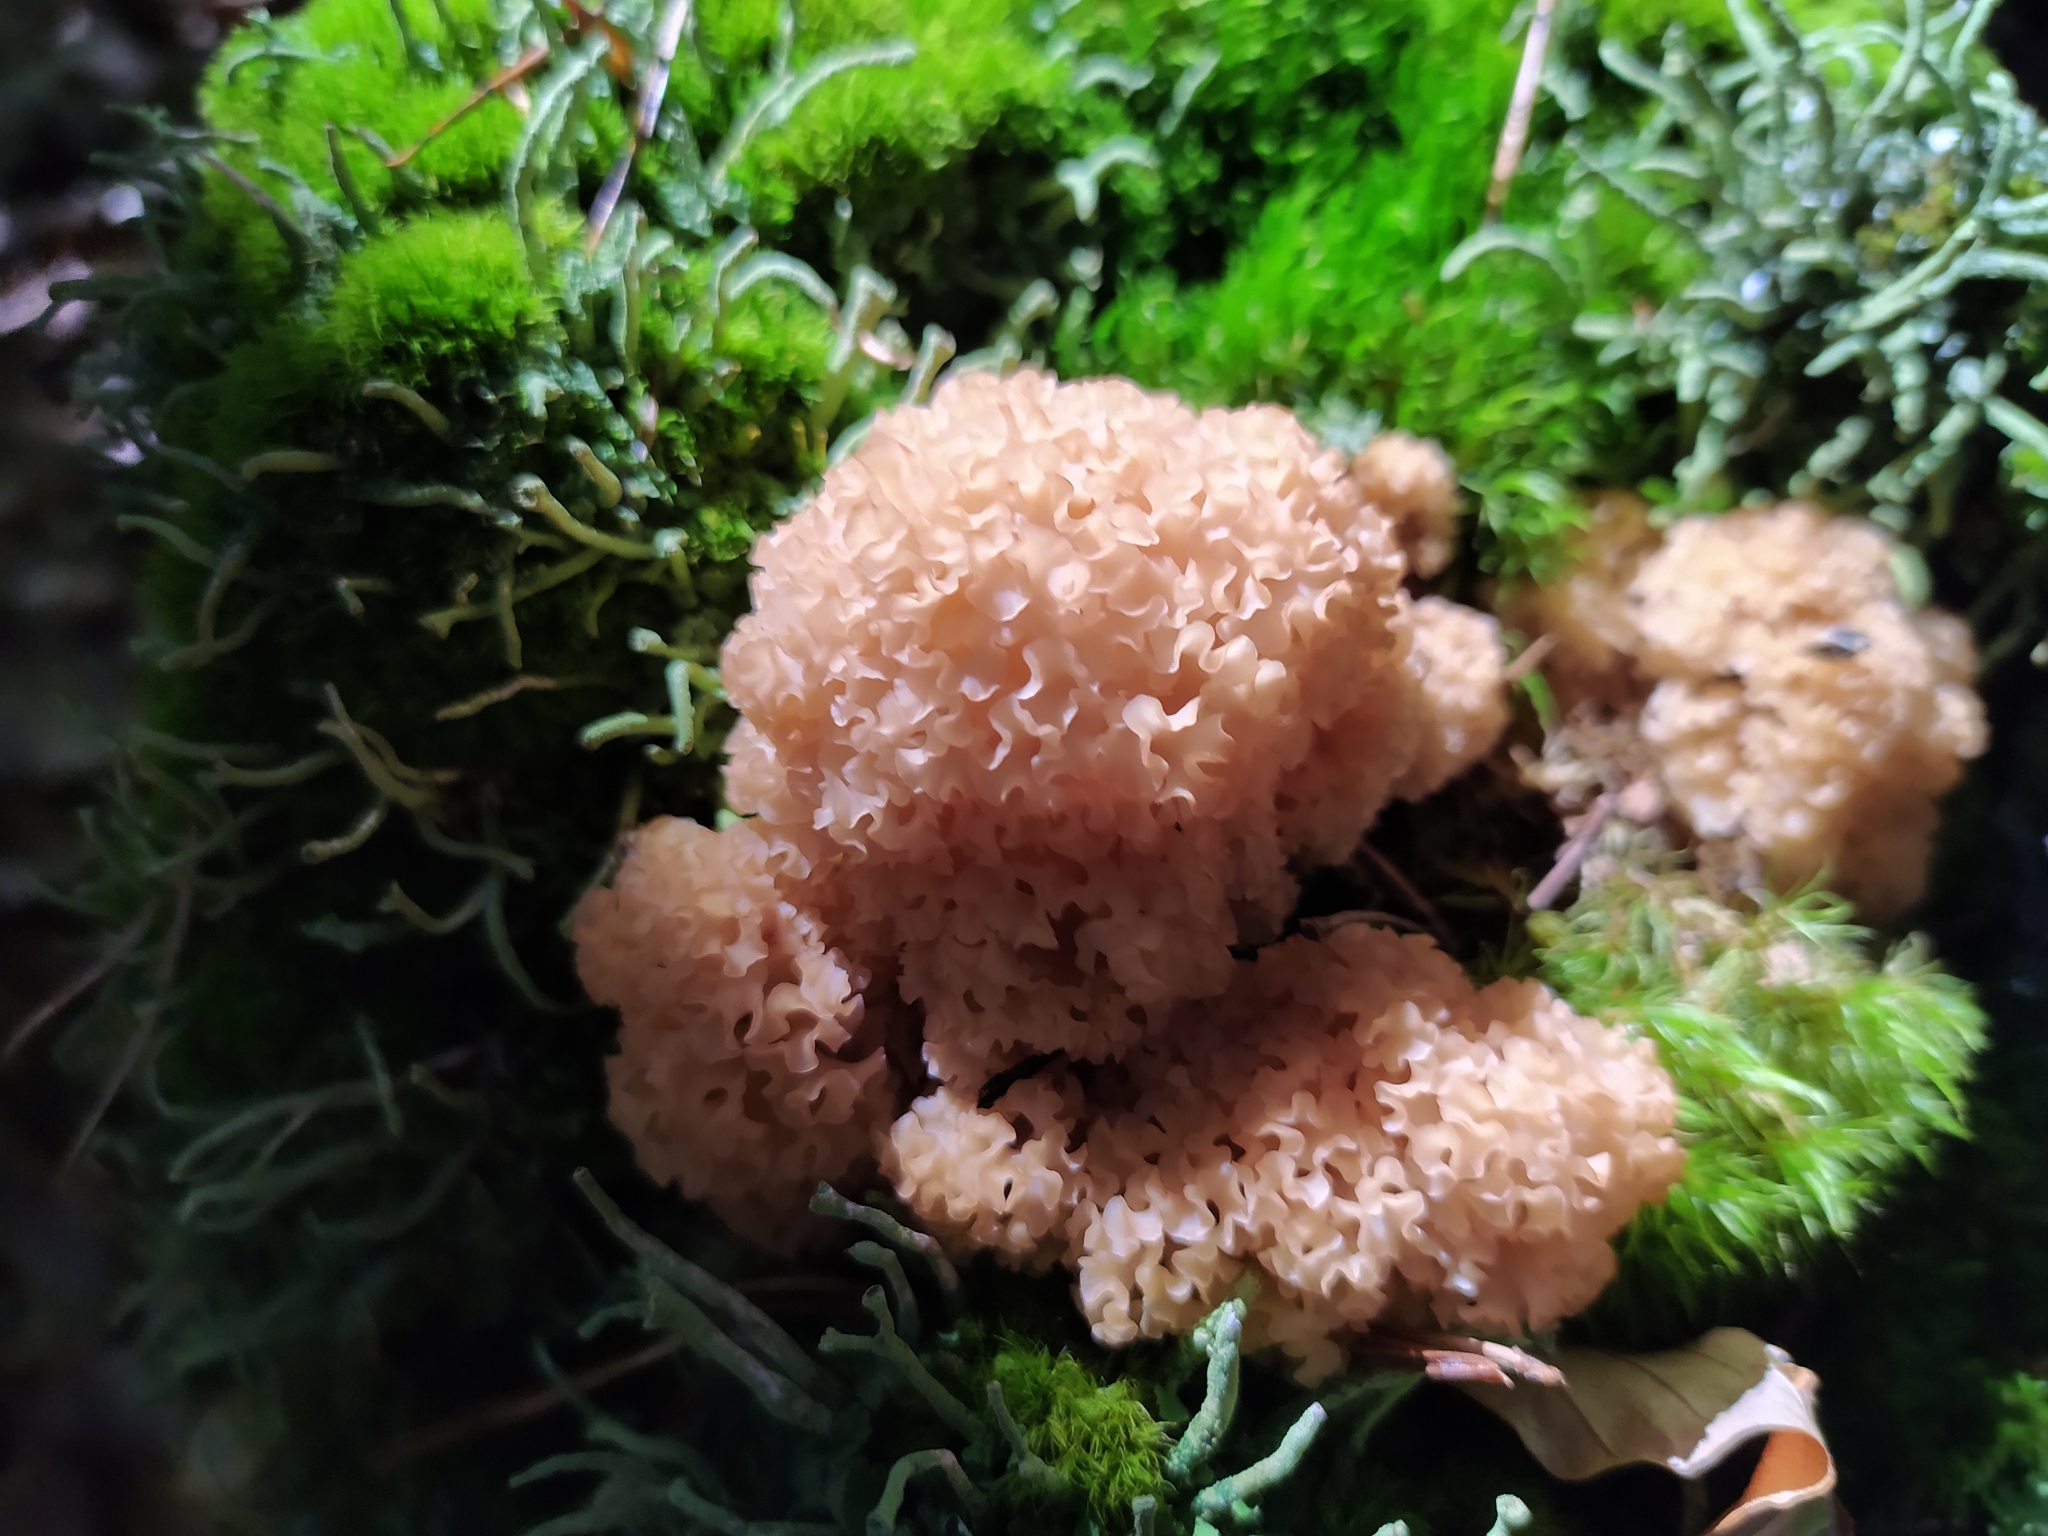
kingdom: Fungi
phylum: Basidiomycota
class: Agaricomycetes
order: Polyporales
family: Sparassidaceae
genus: Sparassis
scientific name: Sparassis crispa
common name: Brain fungus
